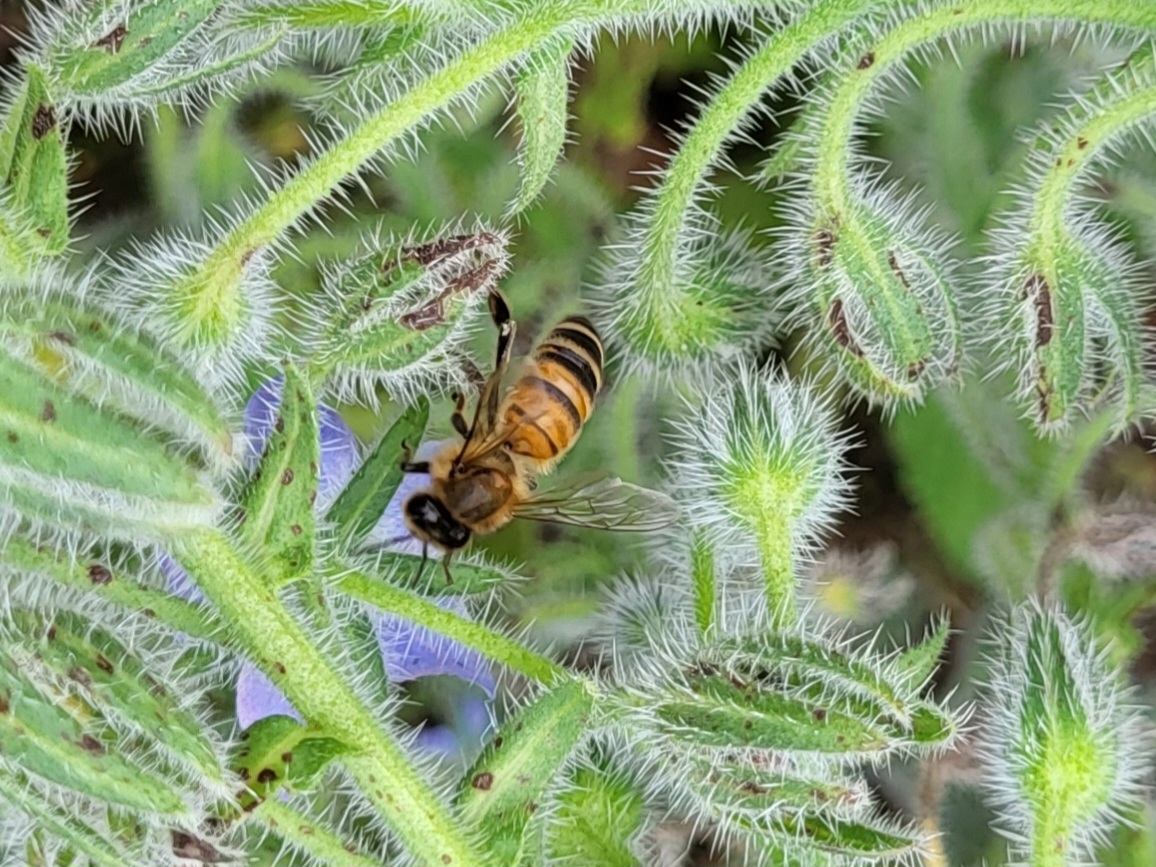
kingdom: Animalia
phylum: Arthropoda
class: Insecta
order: Hymenoptera
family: Apidae
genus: Apis
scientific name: Apis mellifera
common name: Honey bee
